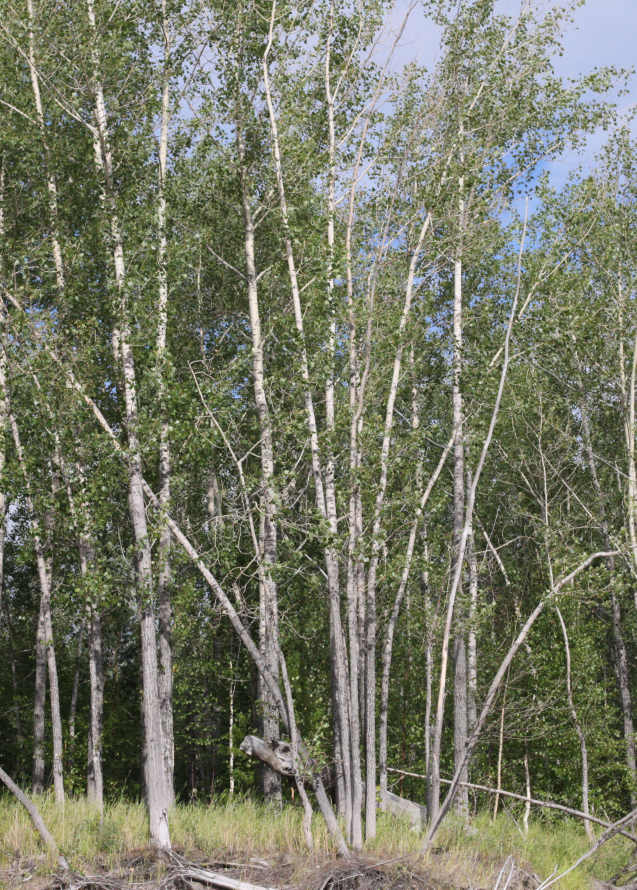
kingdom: Plantae
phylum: Tracheophyta
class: Magnoliopsida
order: Malpighiales
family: Salicaceae
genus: Populus
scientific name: Populus nigra
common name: Black poplar
